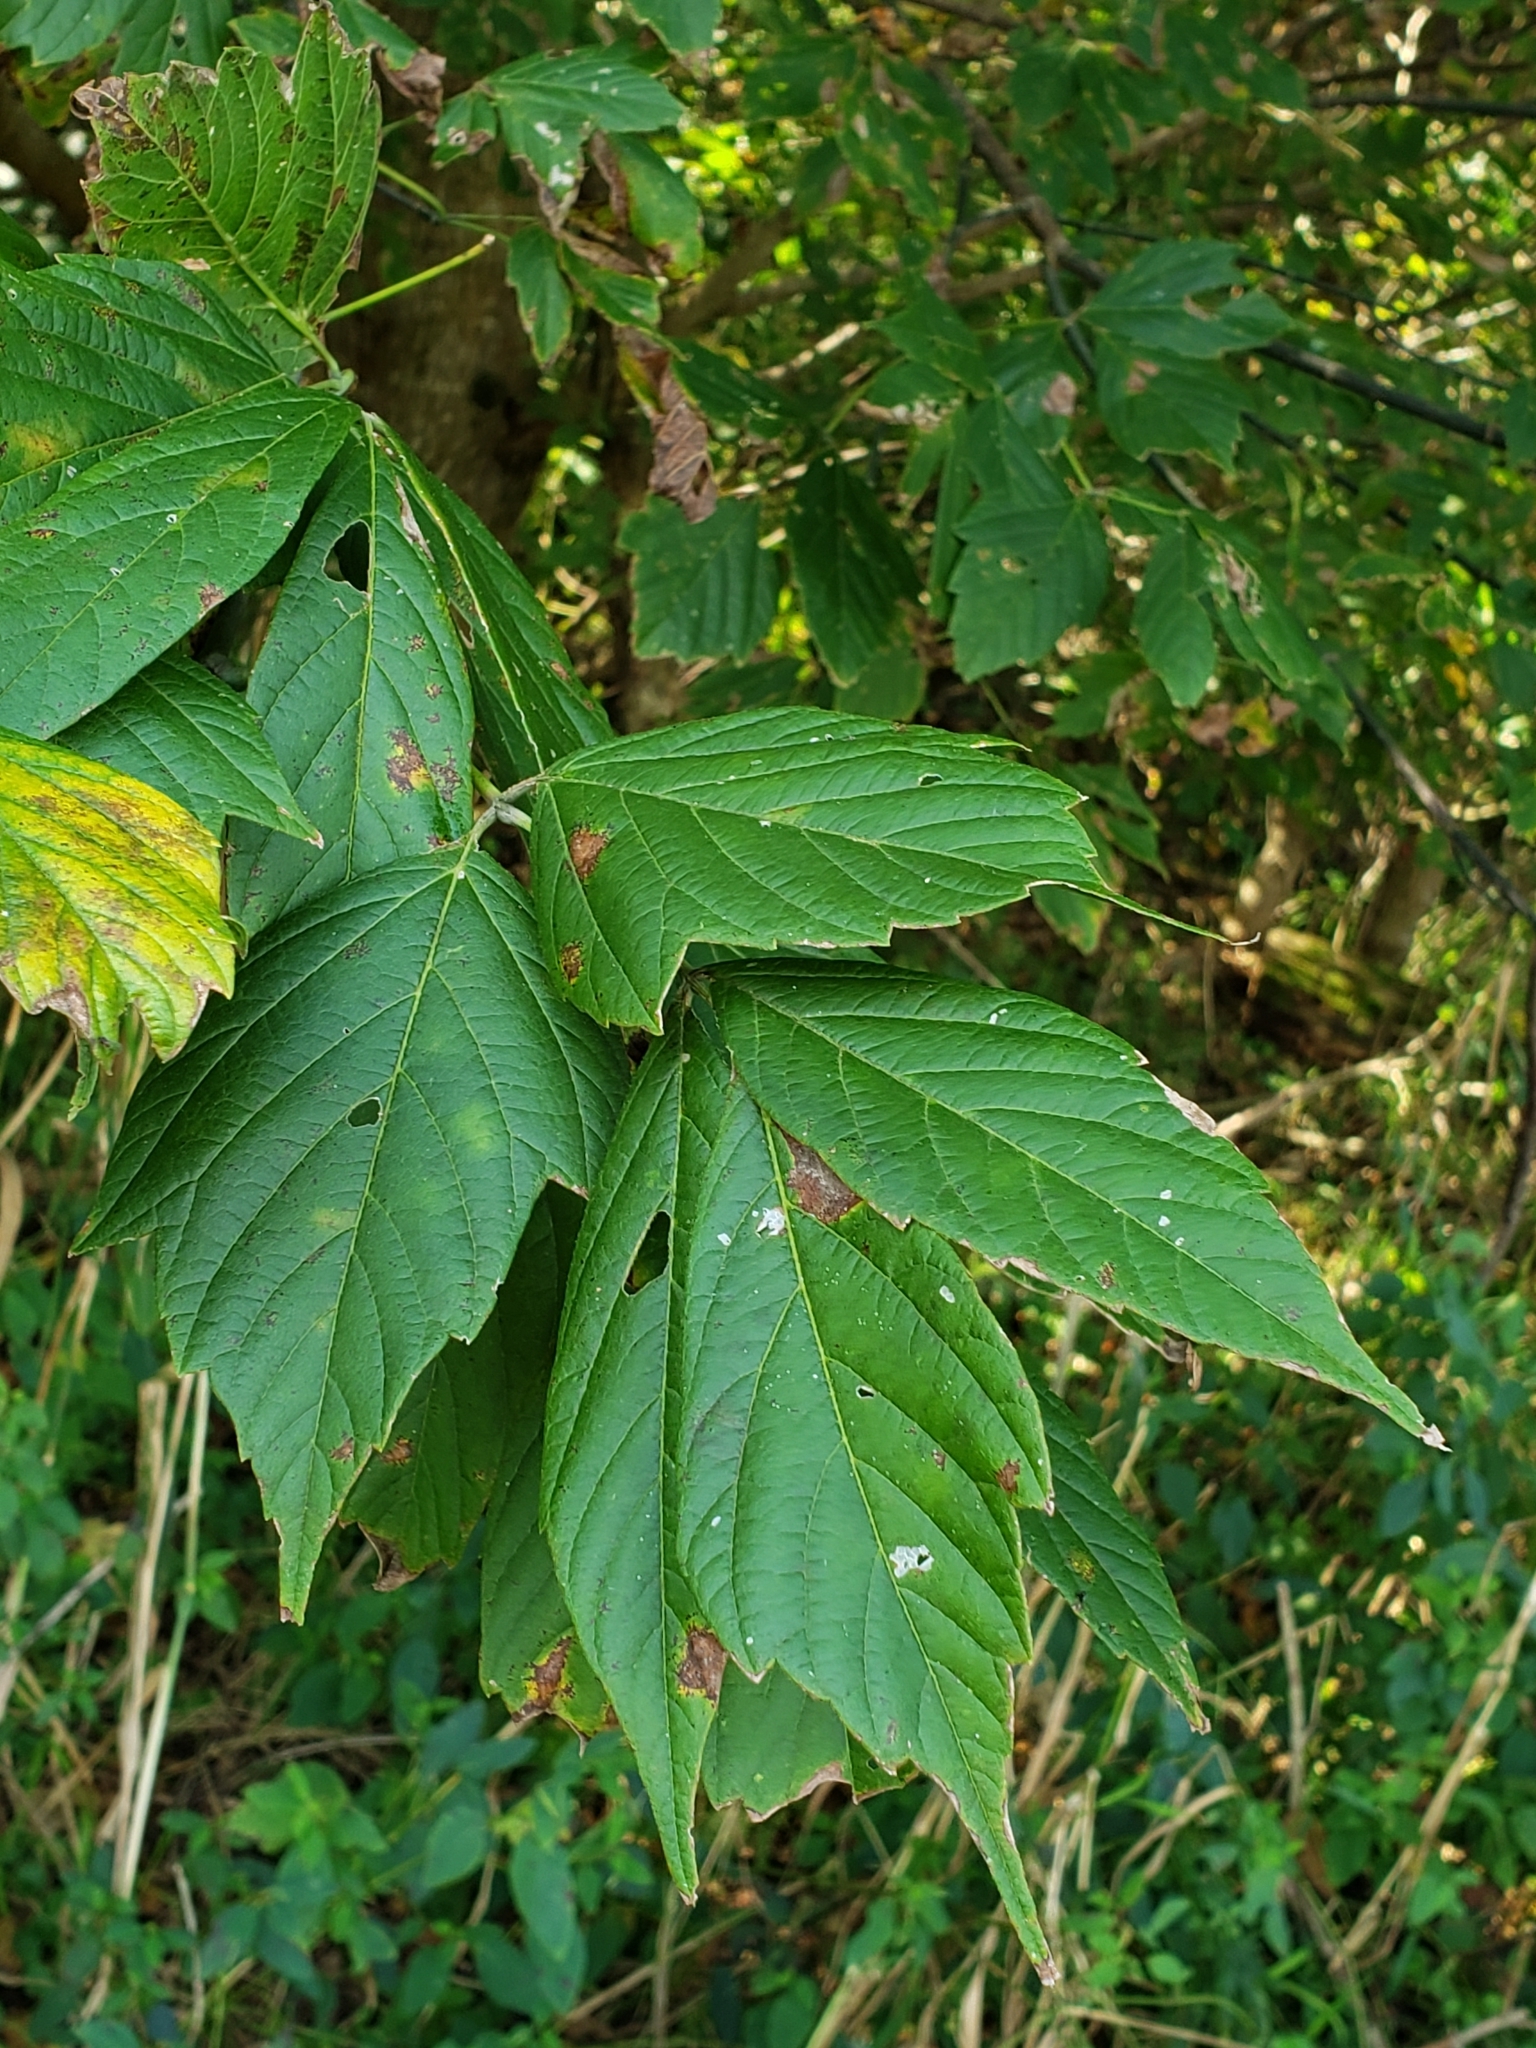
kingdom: Plantae
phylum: Tracheophyta
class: Magnoliopsida
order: Sapindales
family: Sapindaceae
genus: Acer
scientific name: Acer negundo
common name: Ashleaf maple
